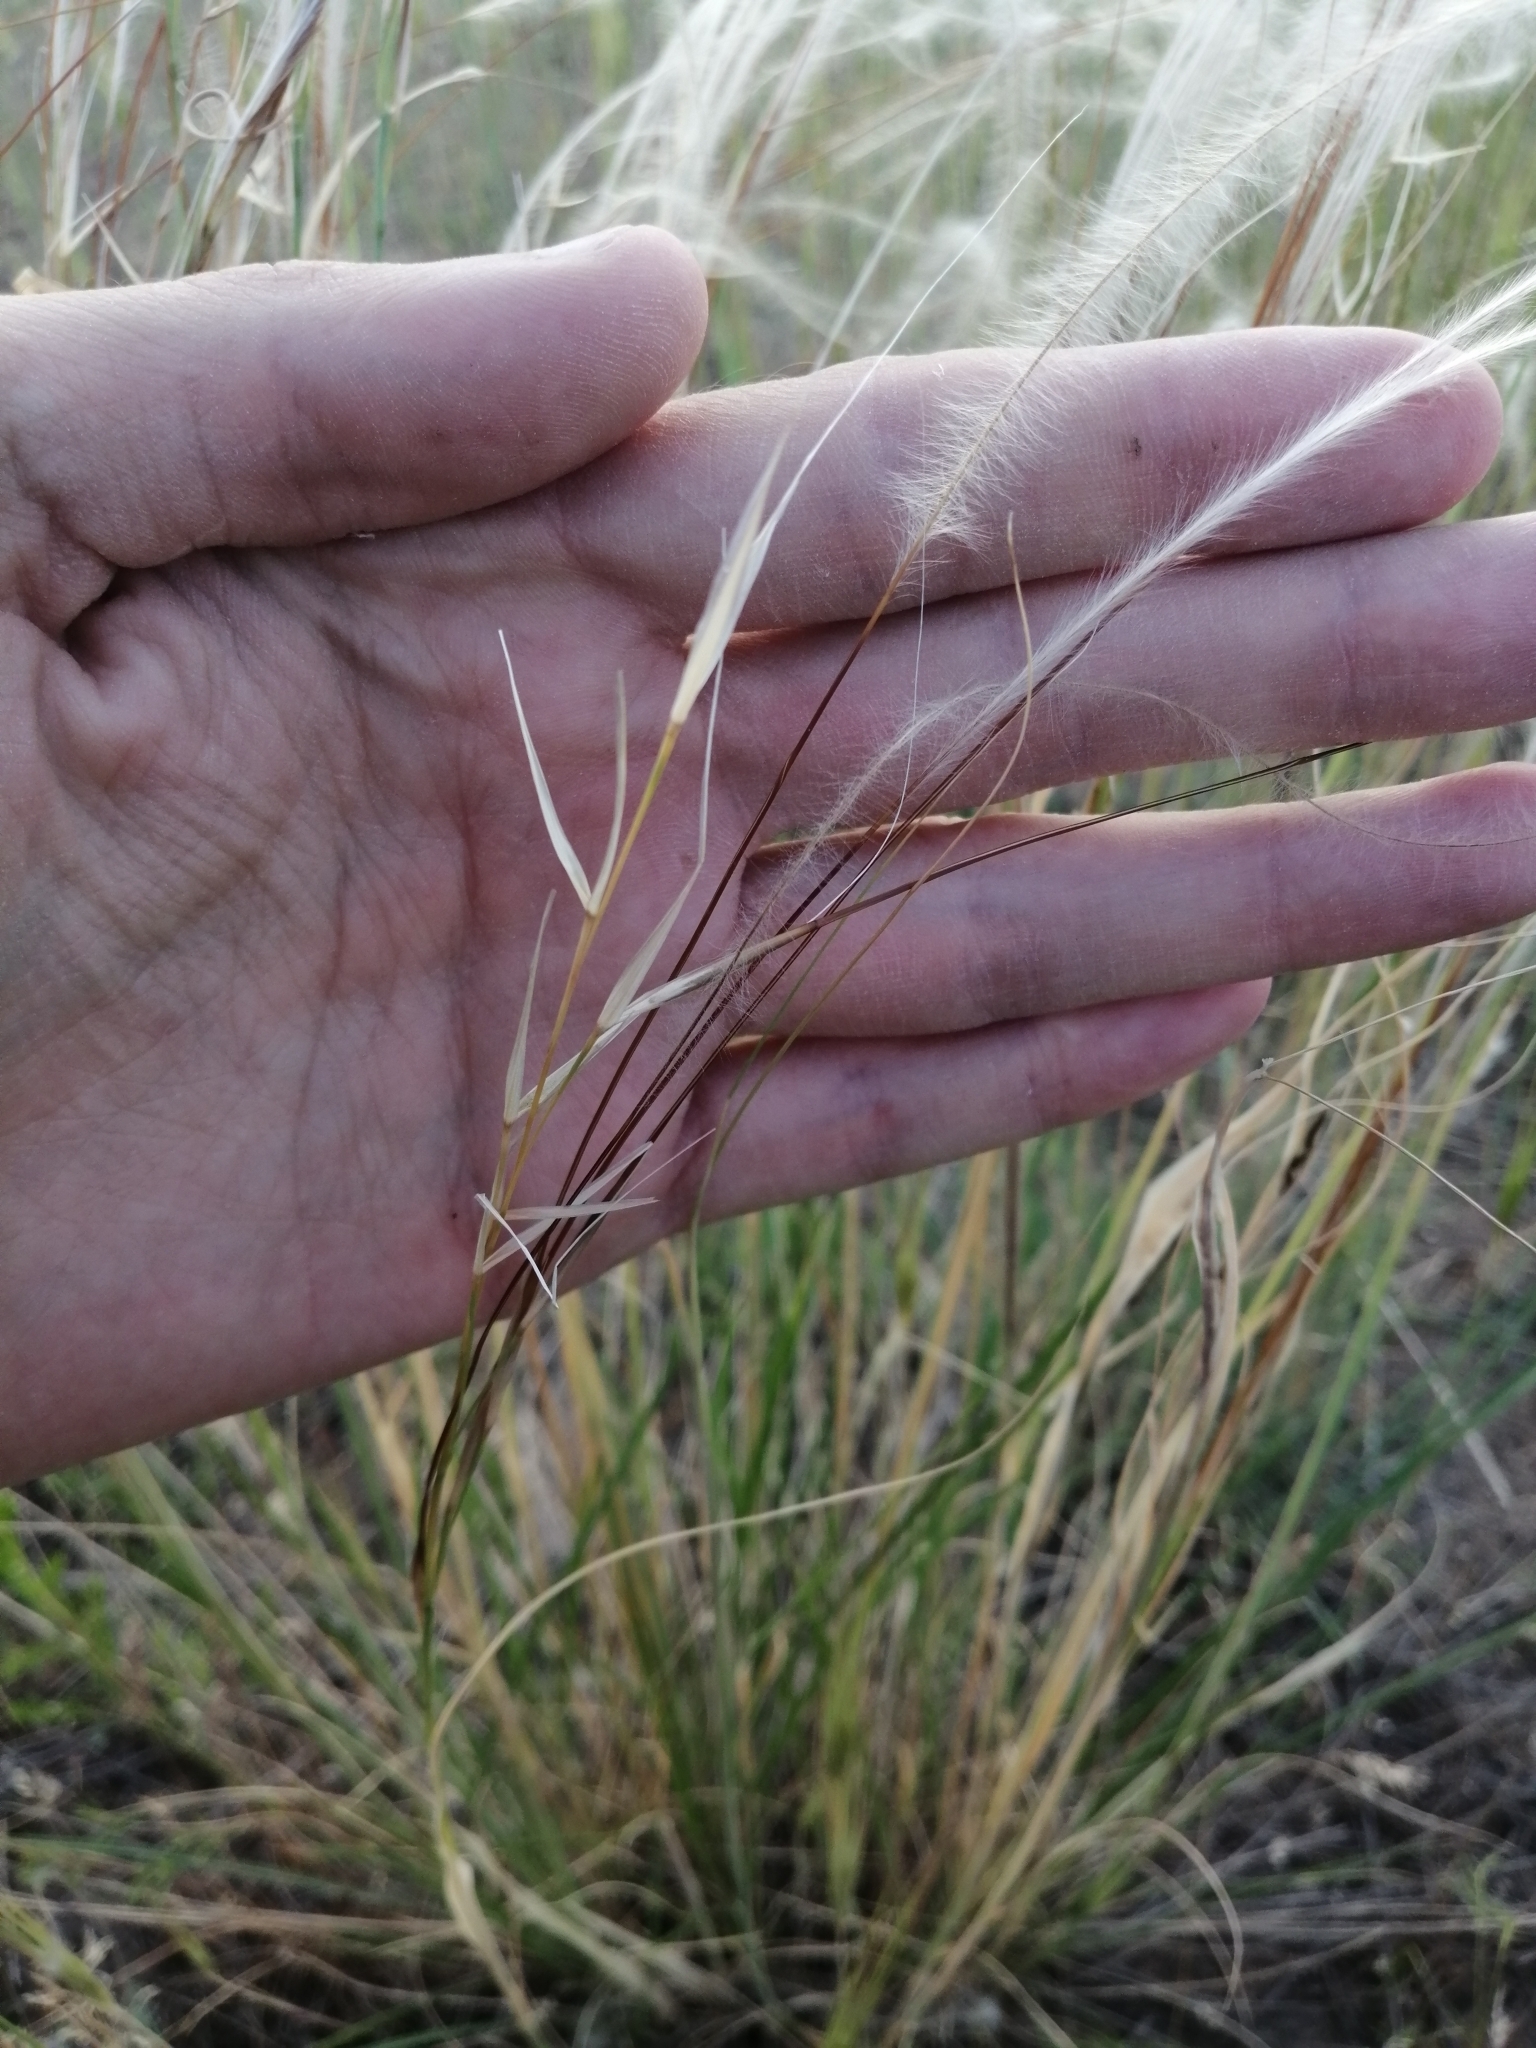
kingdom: Plantae
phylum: Tracheophyta
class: Liliopsida
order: Poales
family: Poaceae
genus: Stipa
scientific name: Stipa pennata
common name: European feather grass
